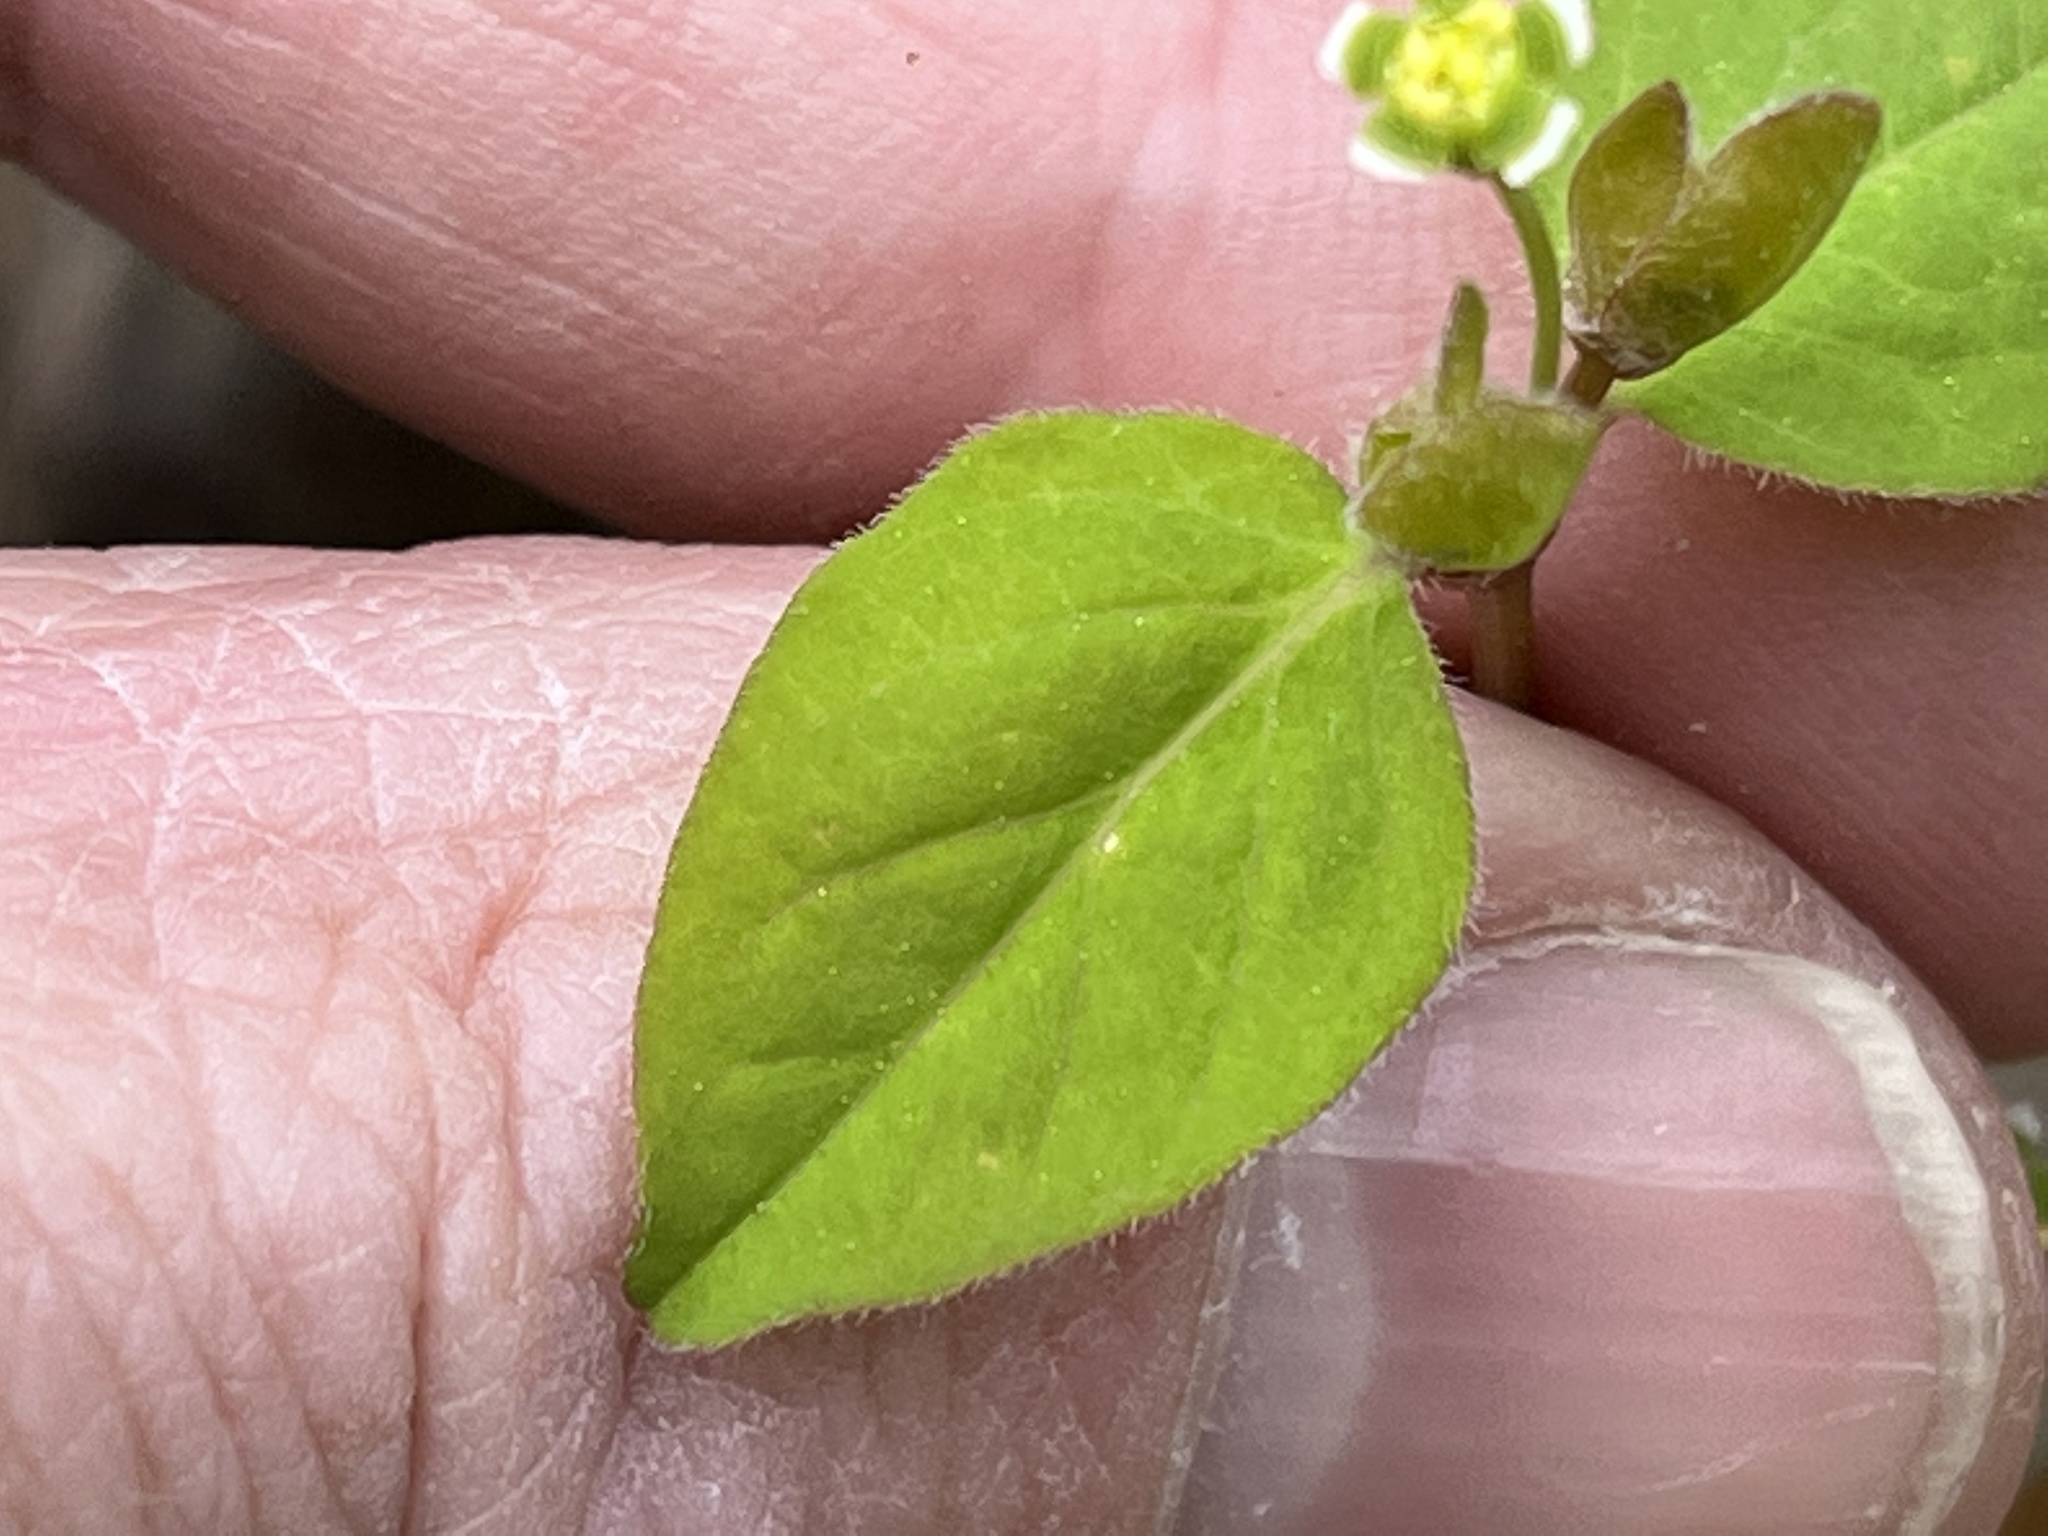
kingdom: Plantae
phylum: Tracheophyta
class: Magnoliopsida
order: Malpighiales
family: Euphorbiaceae
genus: Euphorbia
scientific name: Euphorbia mercurialina
